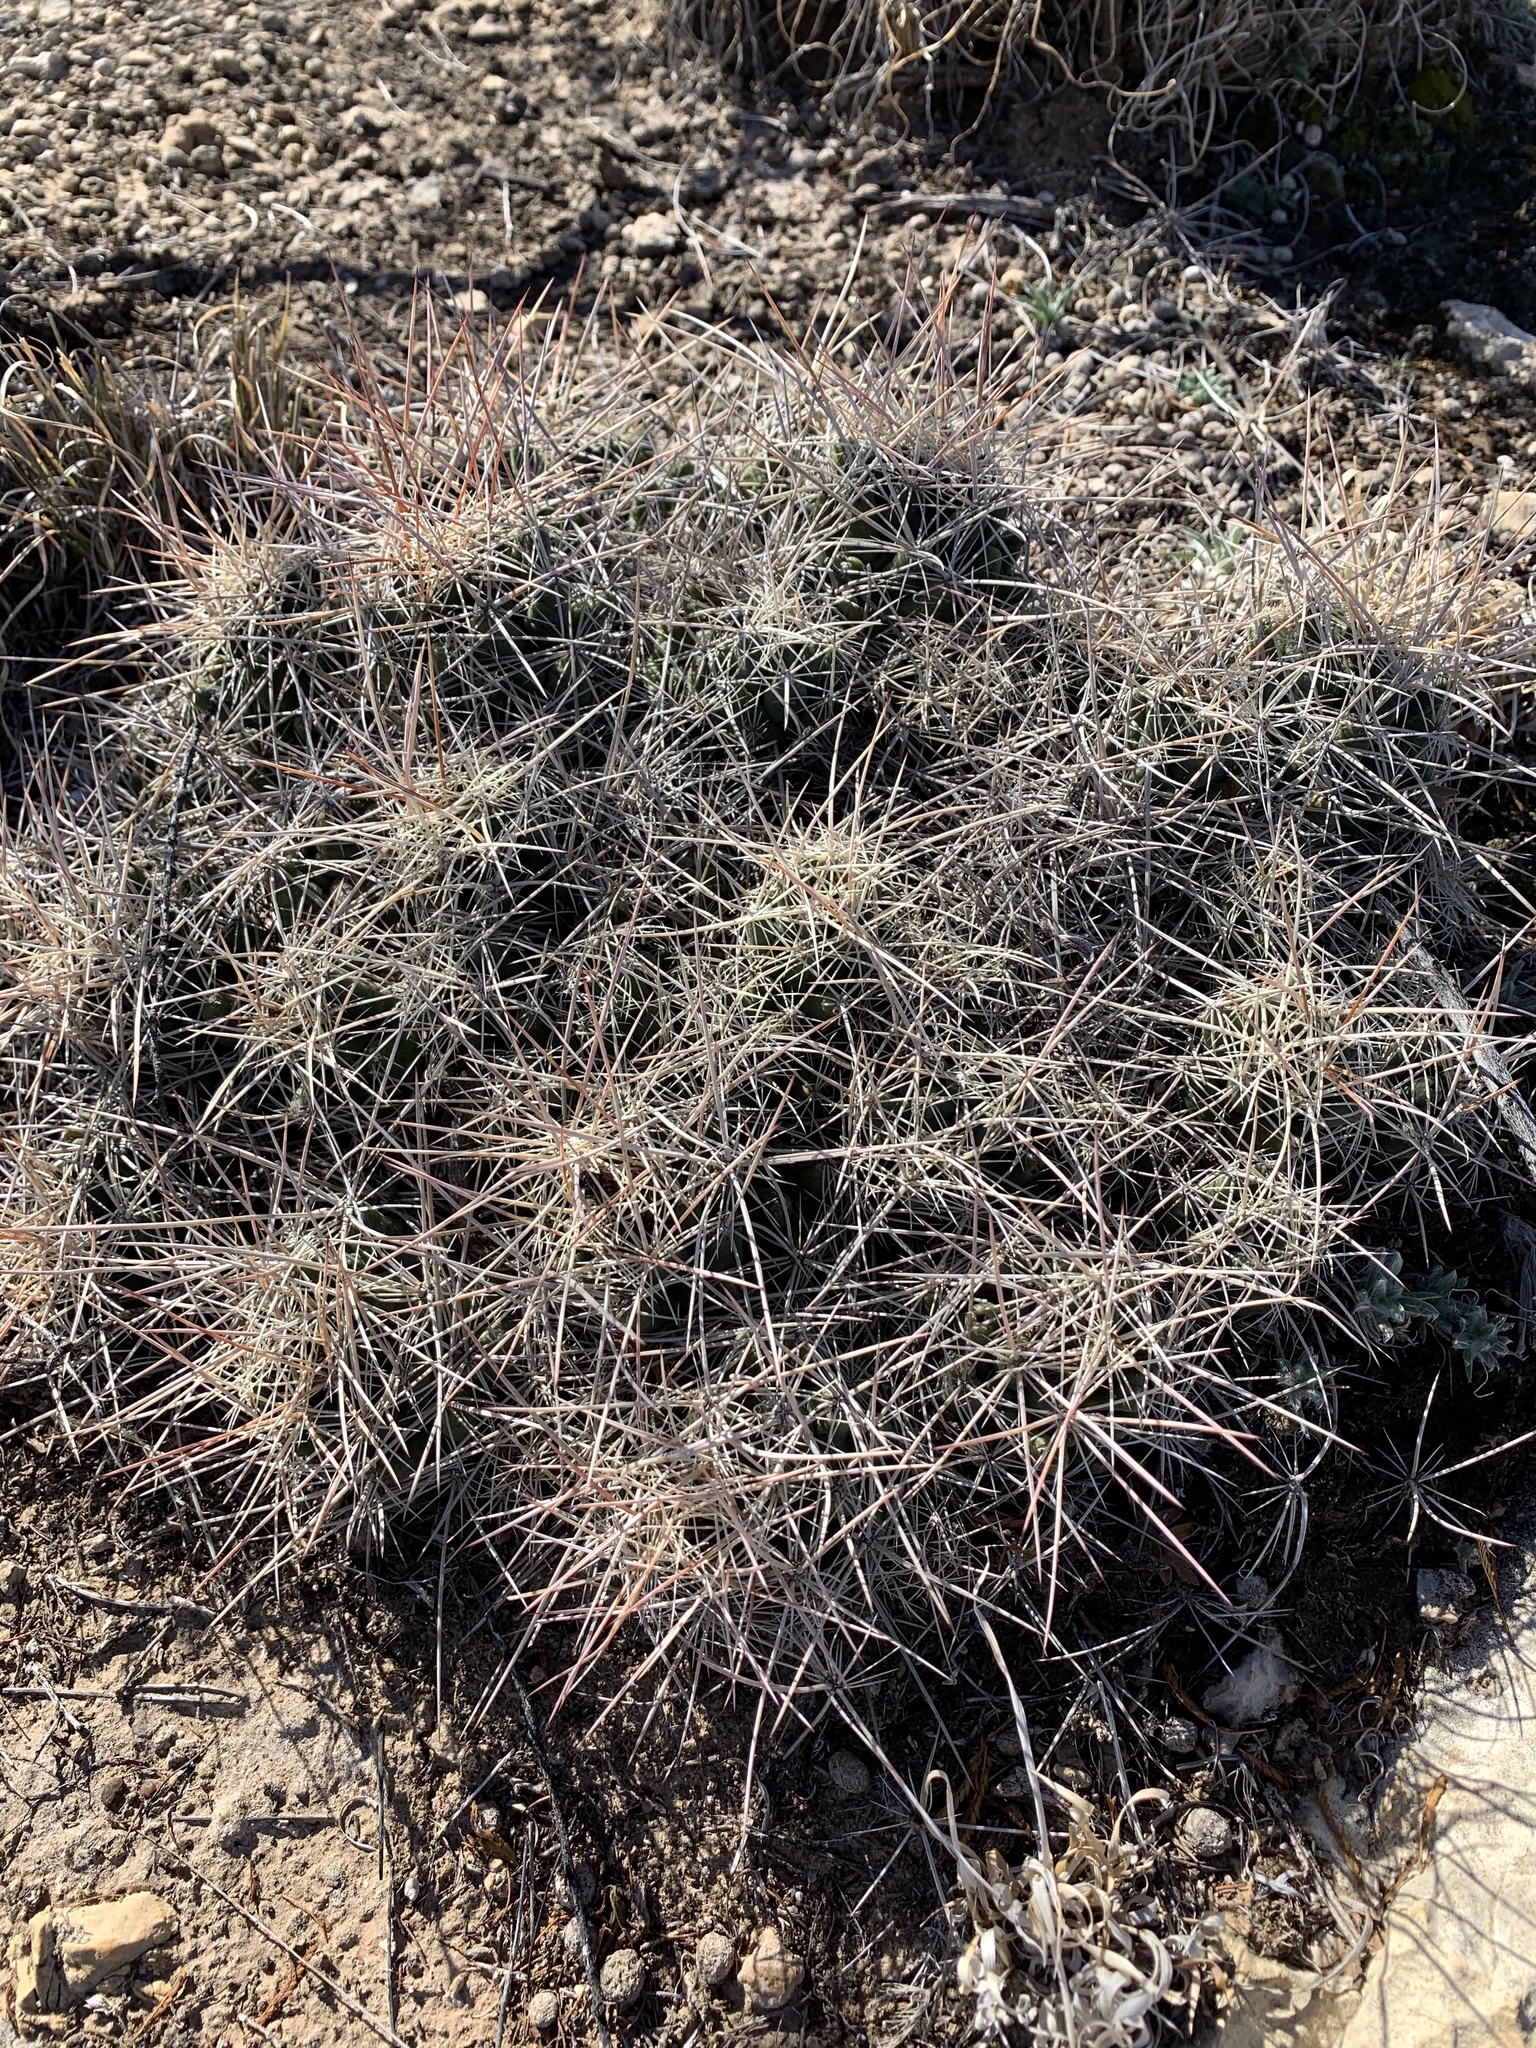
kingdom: Plantae
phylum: Tracheophyta
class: Magnoliopsida
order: Caryophyllales
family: Cactaceae
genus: Coryphantha
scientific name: Coryphantha macromeris
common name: Nipple beehive cactus
